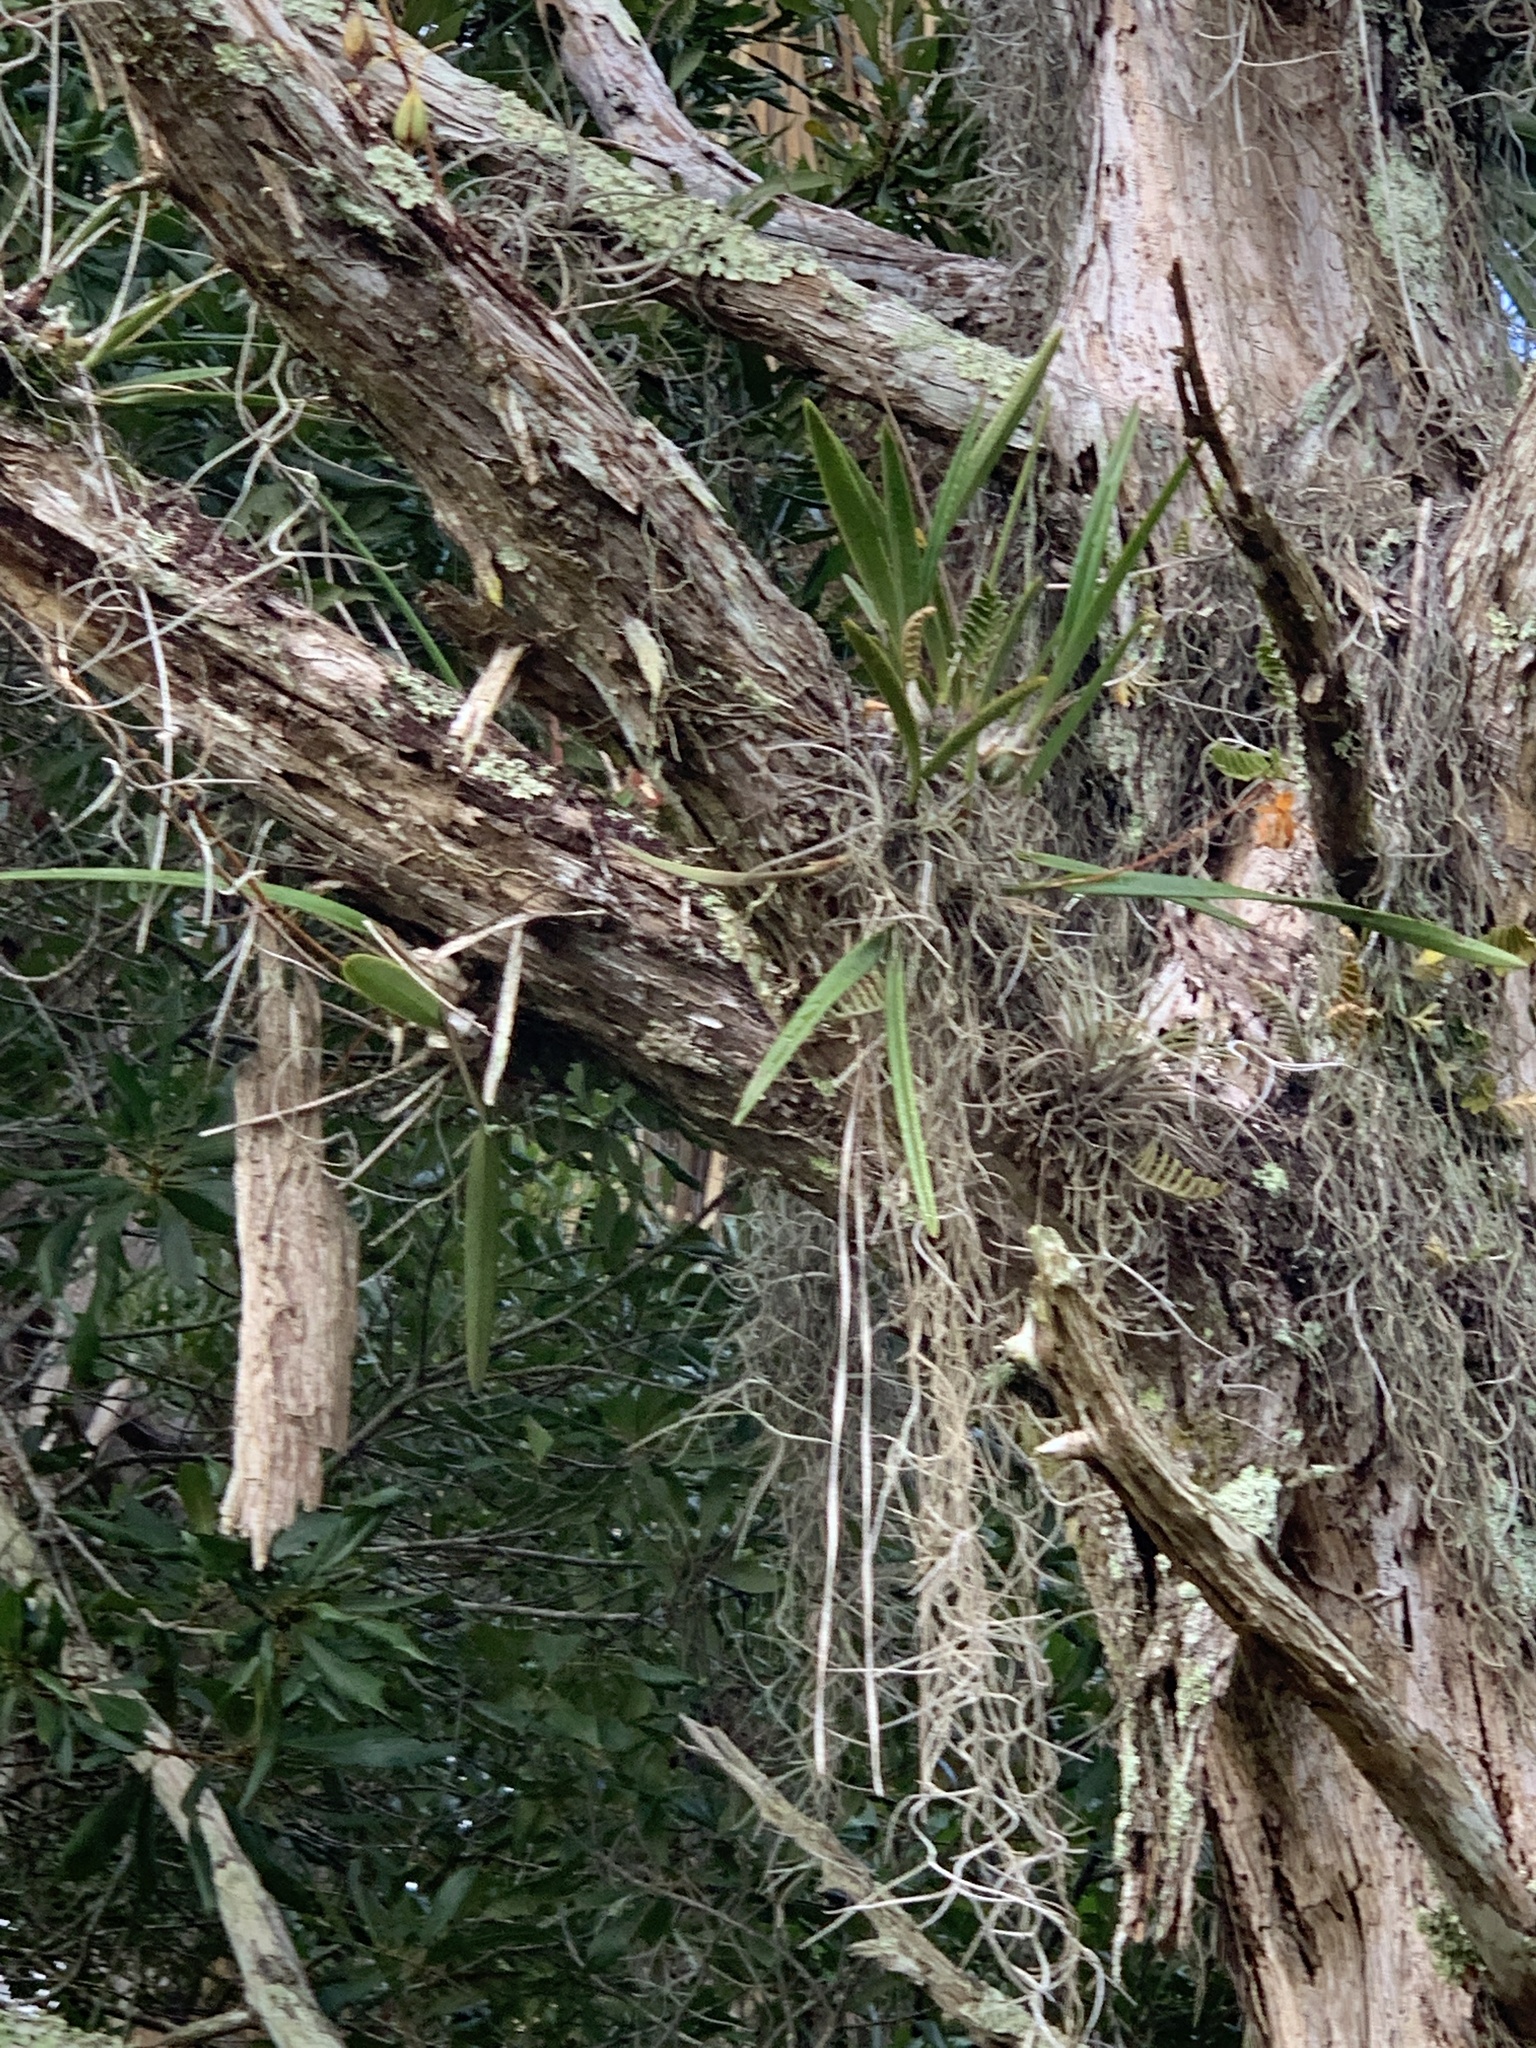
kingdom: Plantae
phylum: Tracheophyta
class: Liliopsida
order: Asparagales
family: Orchidaceae
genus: Encyclia
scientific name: Encyclia tampensis
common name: Florida butterfly orchid
